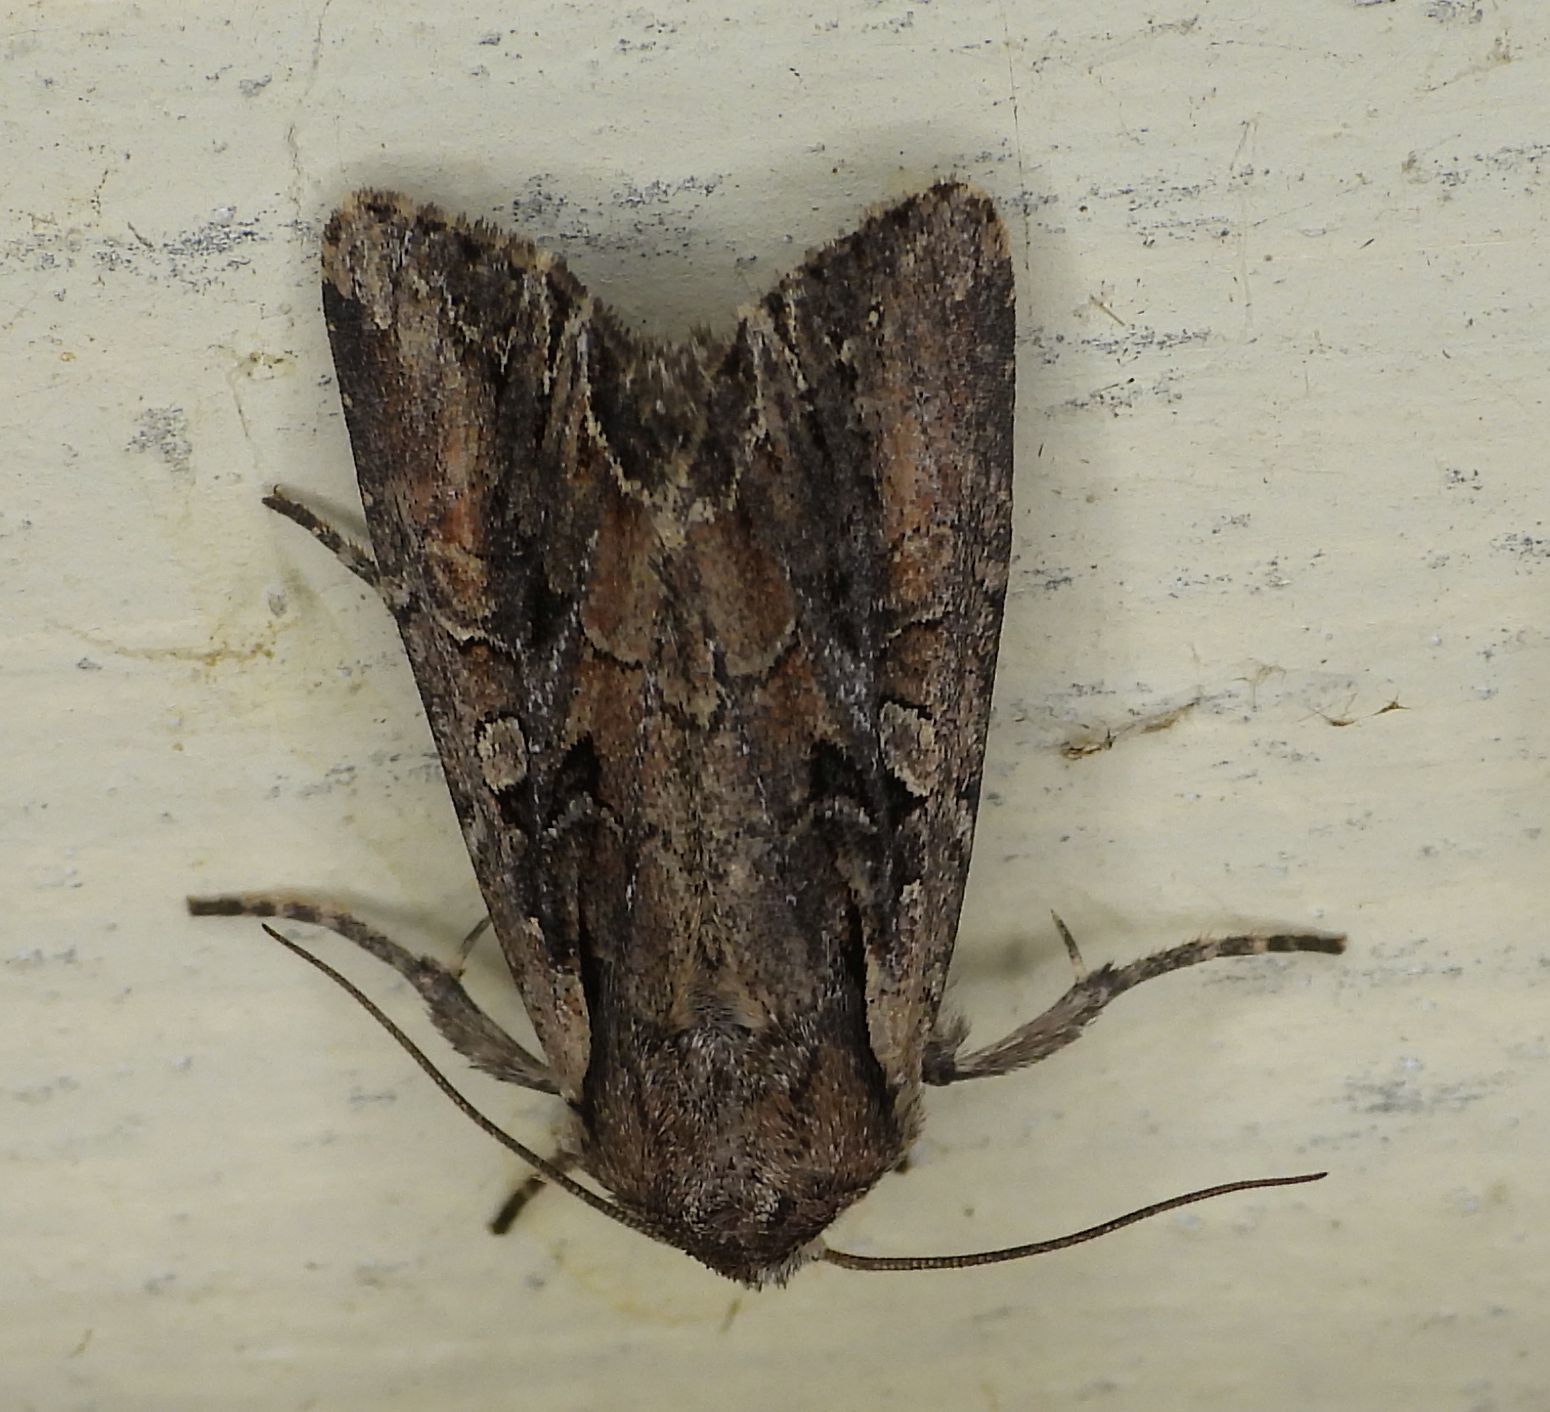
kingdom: Animalia
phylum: Arthropoda
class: Insecta
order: Lepidoptera
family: Noctuidae
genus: Lacanobia
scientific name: Lacanobia nevadae
